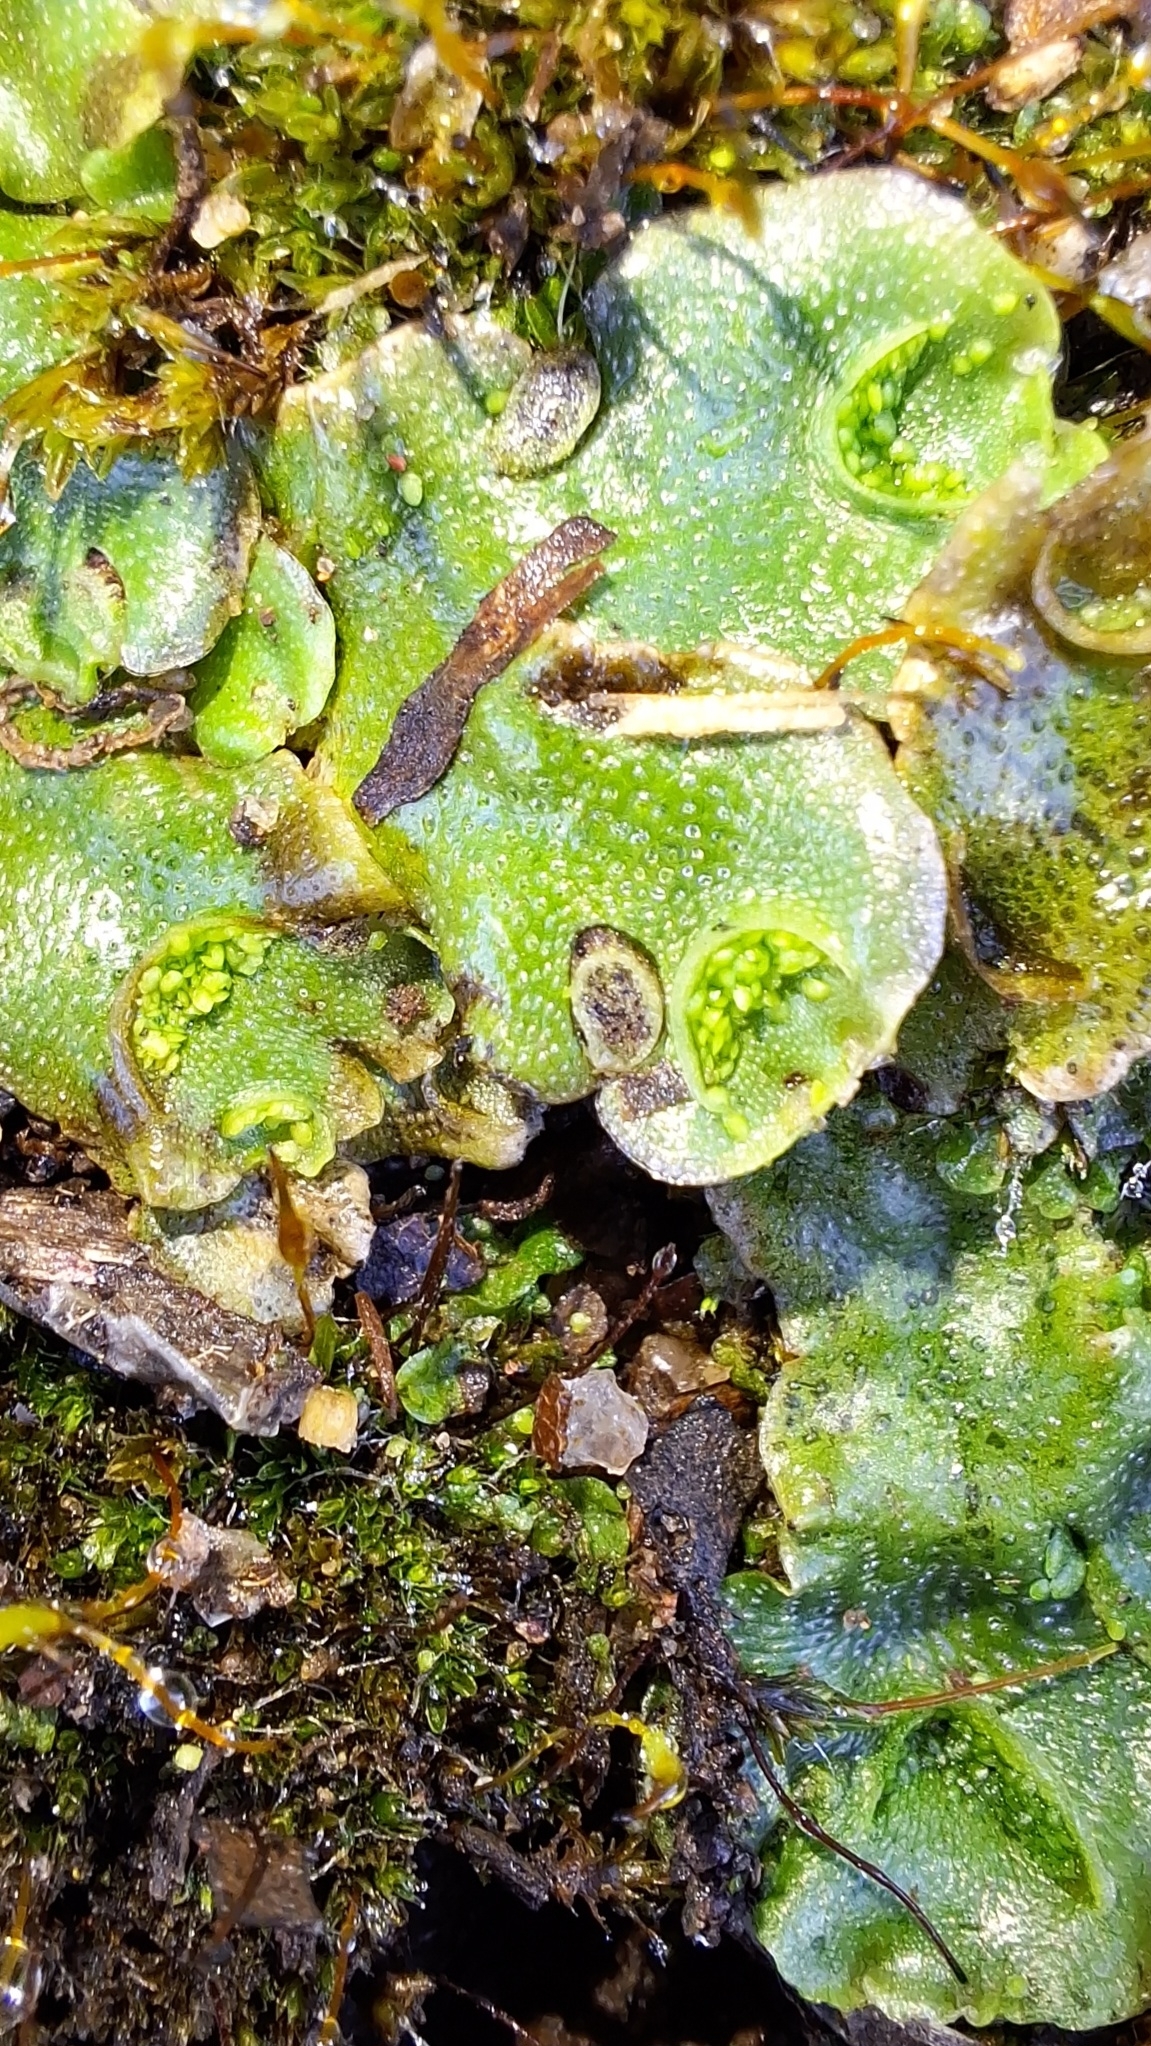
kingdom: Plantae
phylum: Marchantiophyta
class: Marchantiopsida
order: Lunulariales
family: Lunulariaceae
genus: Lunularia
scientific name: Lunularia cruciata
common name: Crescent-cup liverwort
